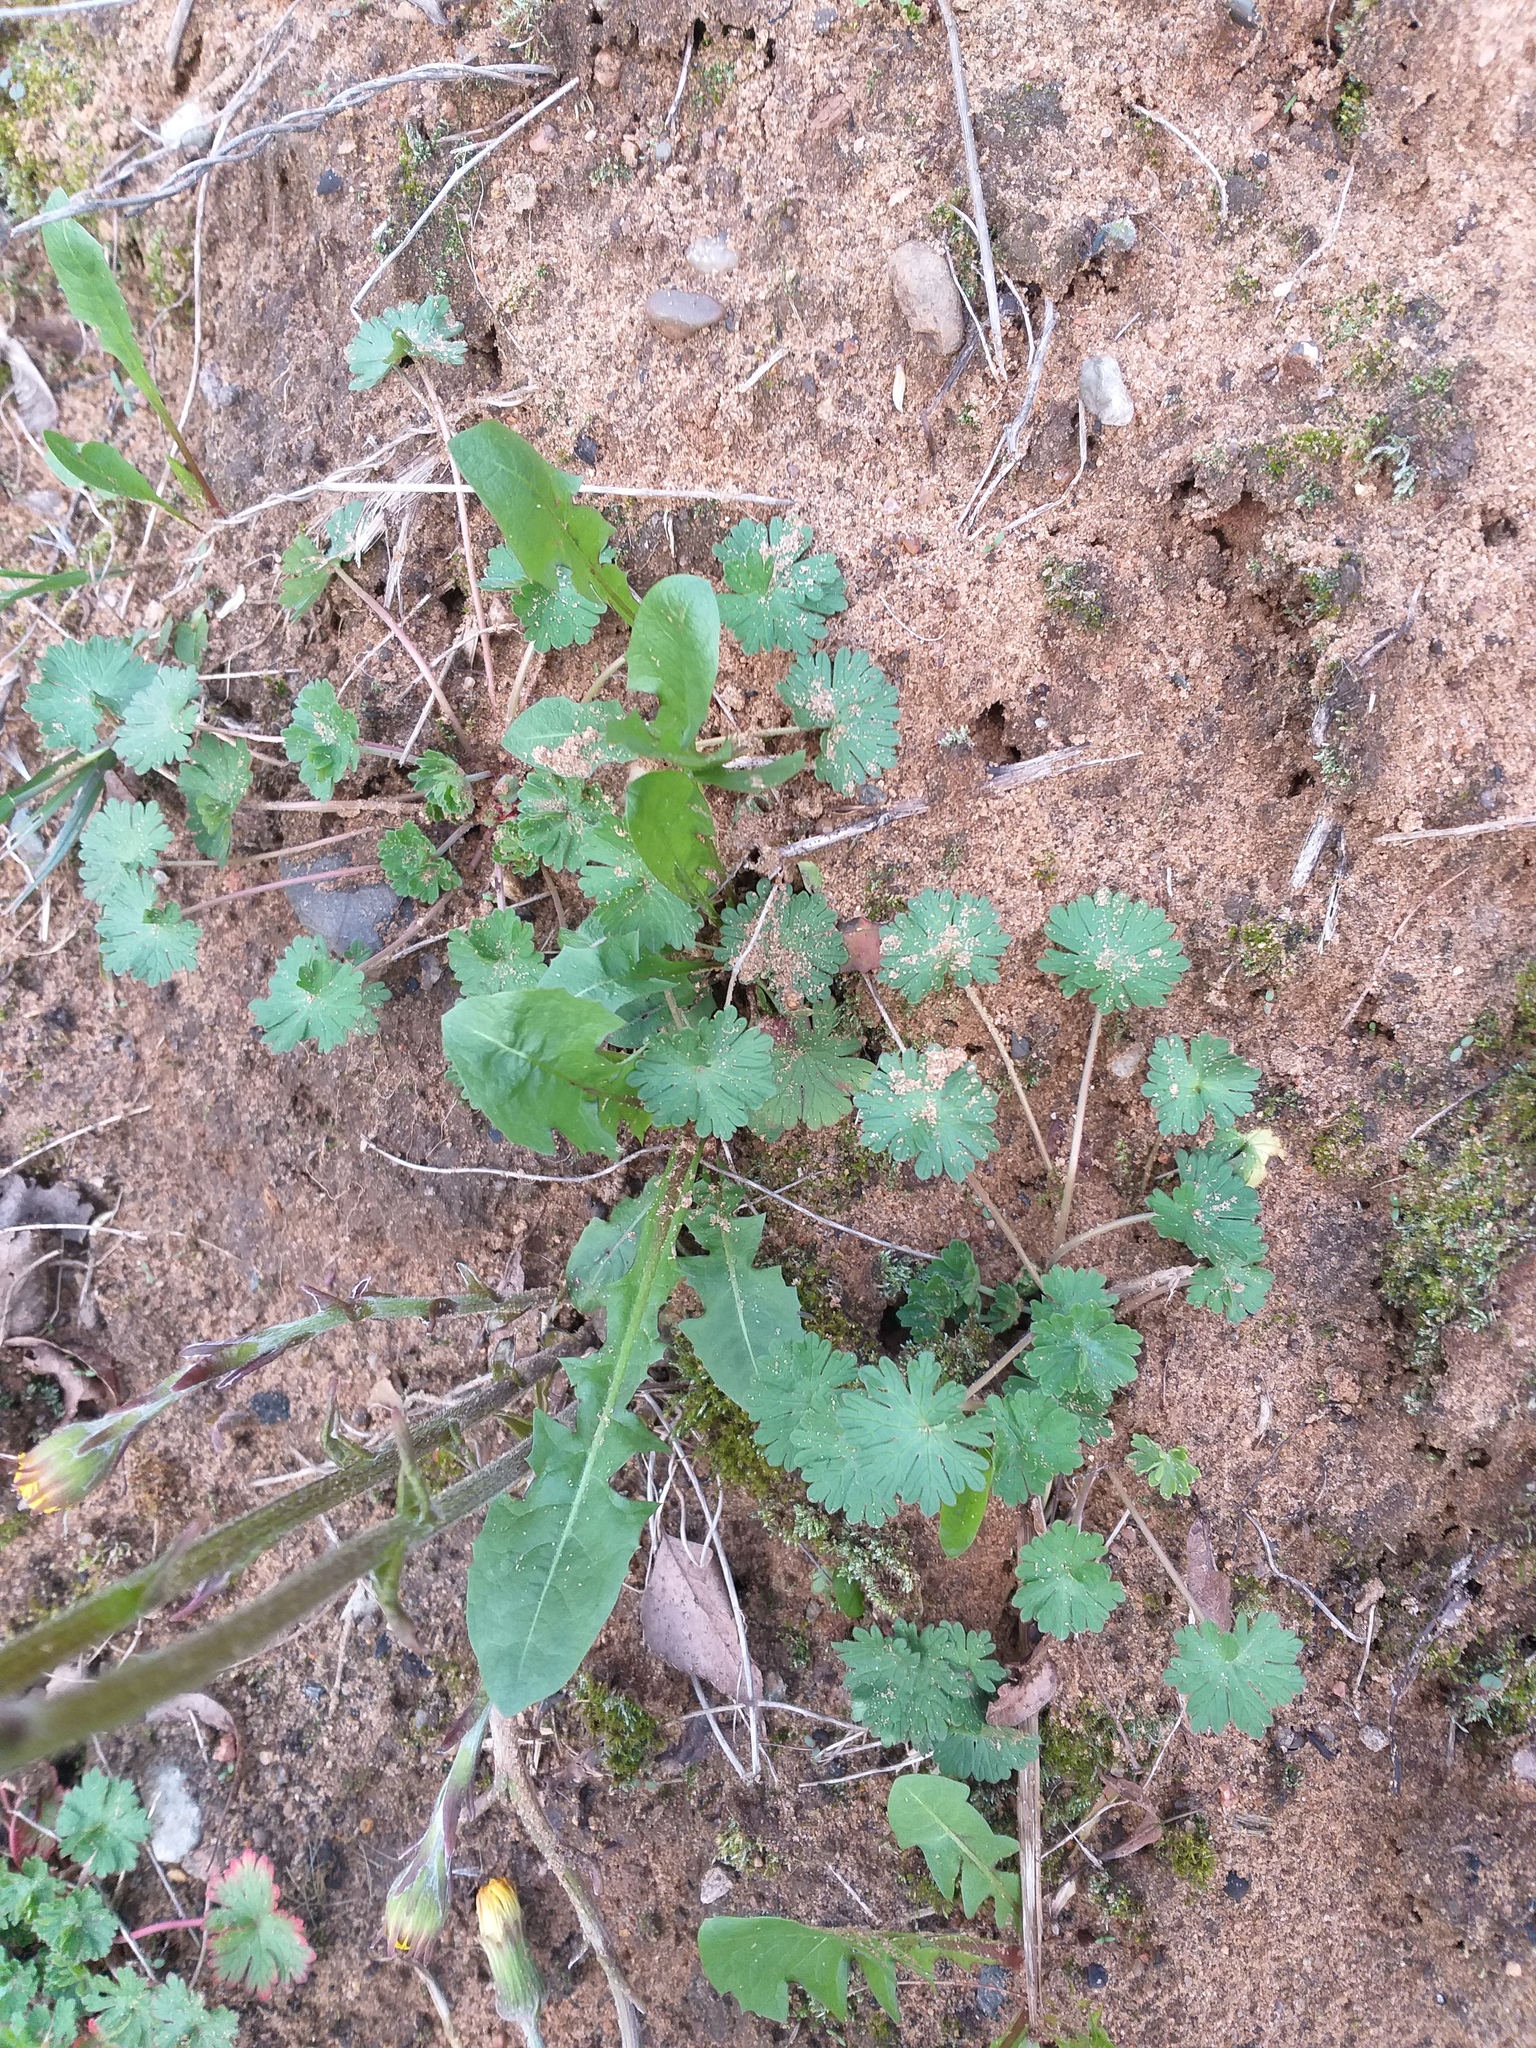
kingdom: Plantae
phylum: Tracheophyta
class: Magnoliopsida
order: Geraniales
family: Geraniaceae
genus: Geranium
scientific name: Geranium pusillum
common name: Small geranium
